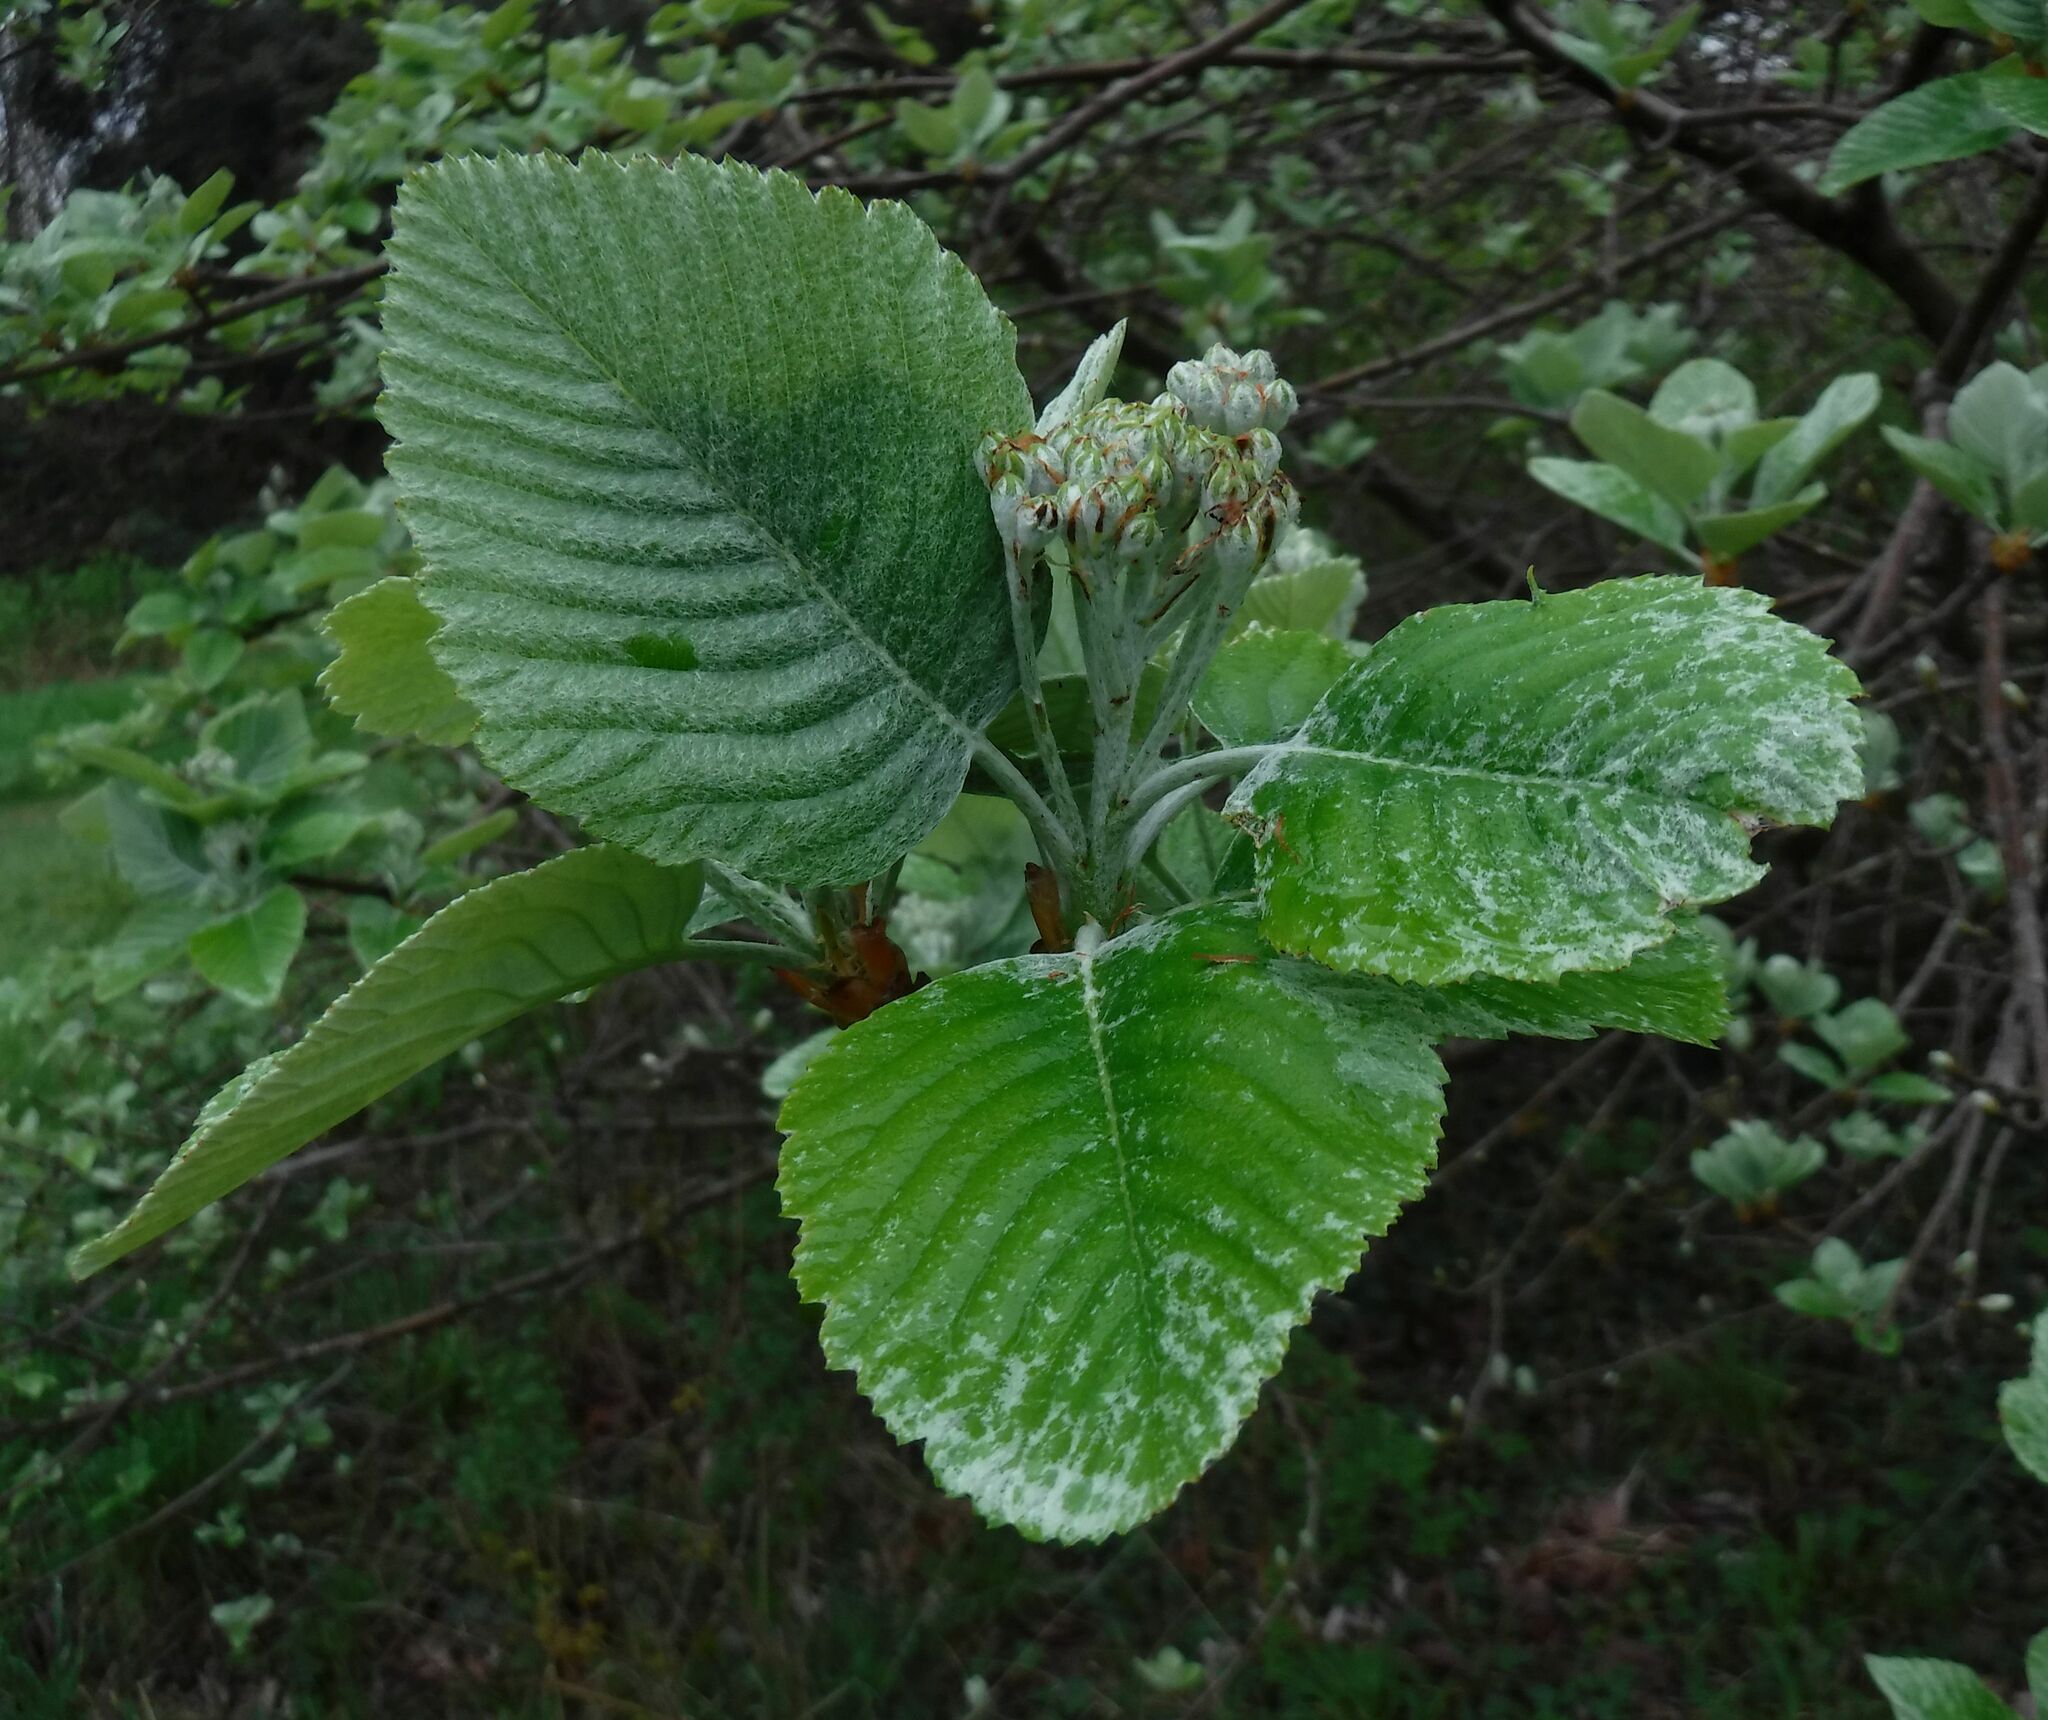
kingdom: Plantae
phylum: Tracheophyta
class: Magnoliopsida
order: Rosales
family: Rosaceae
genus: Aria
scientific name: Aria edulis
